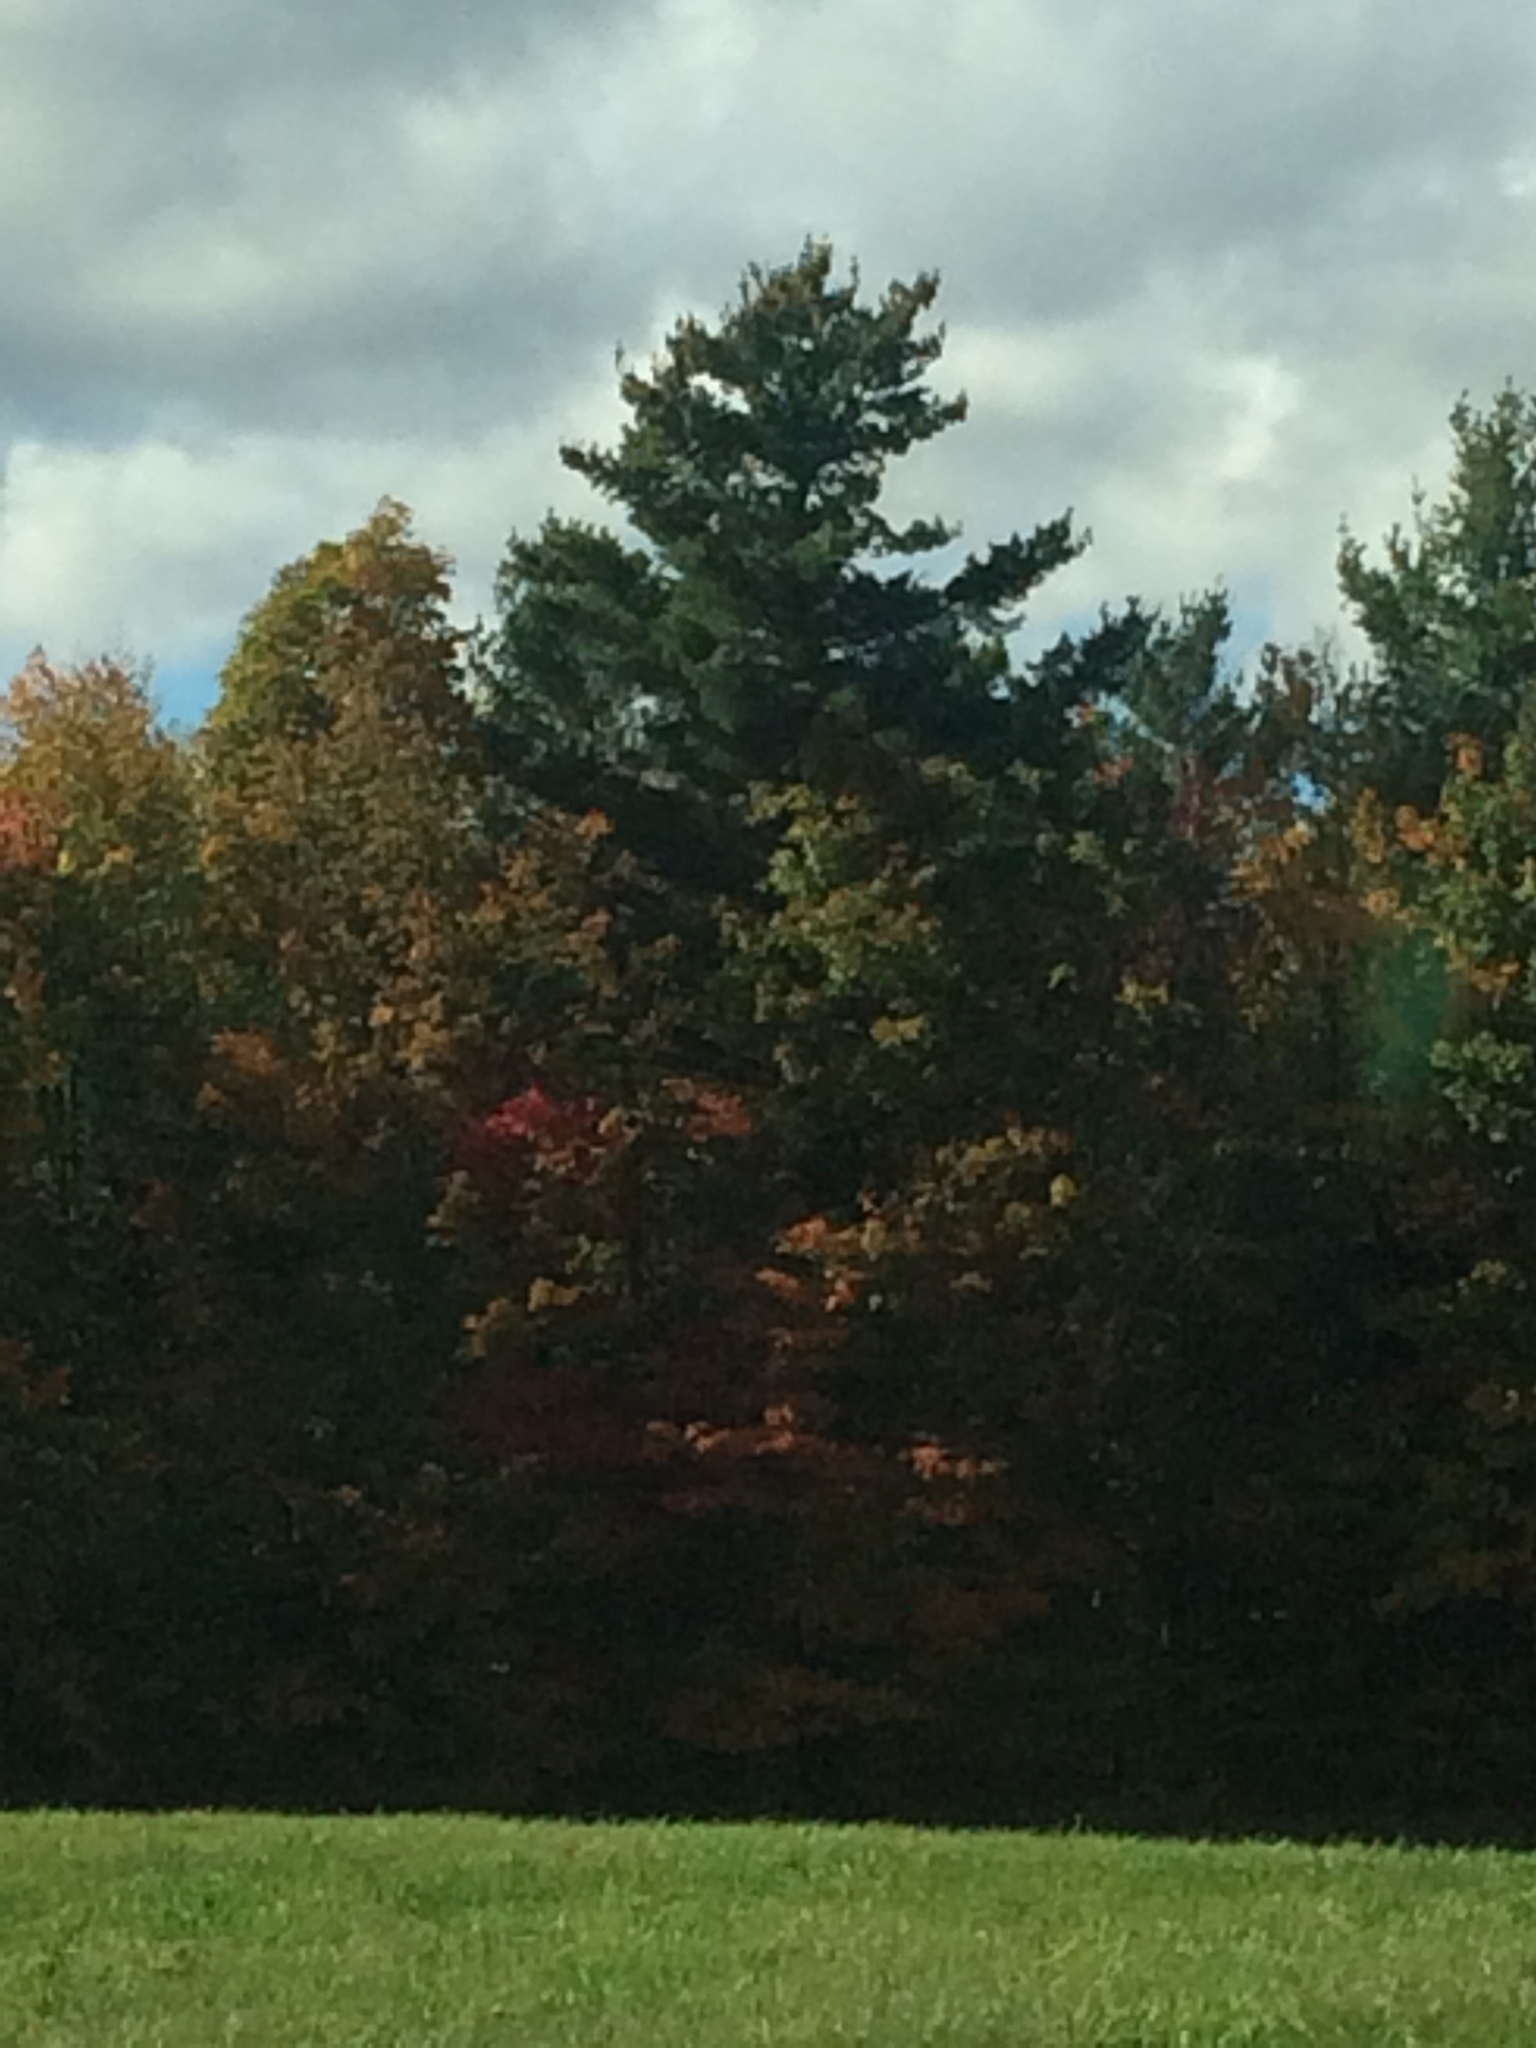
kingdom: Plantae
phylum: Tracheophyta
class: Pinopsida
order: Pinales
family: Pinaceae
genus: Pinus
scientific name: Pinus strobus
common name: Weymouth pine
